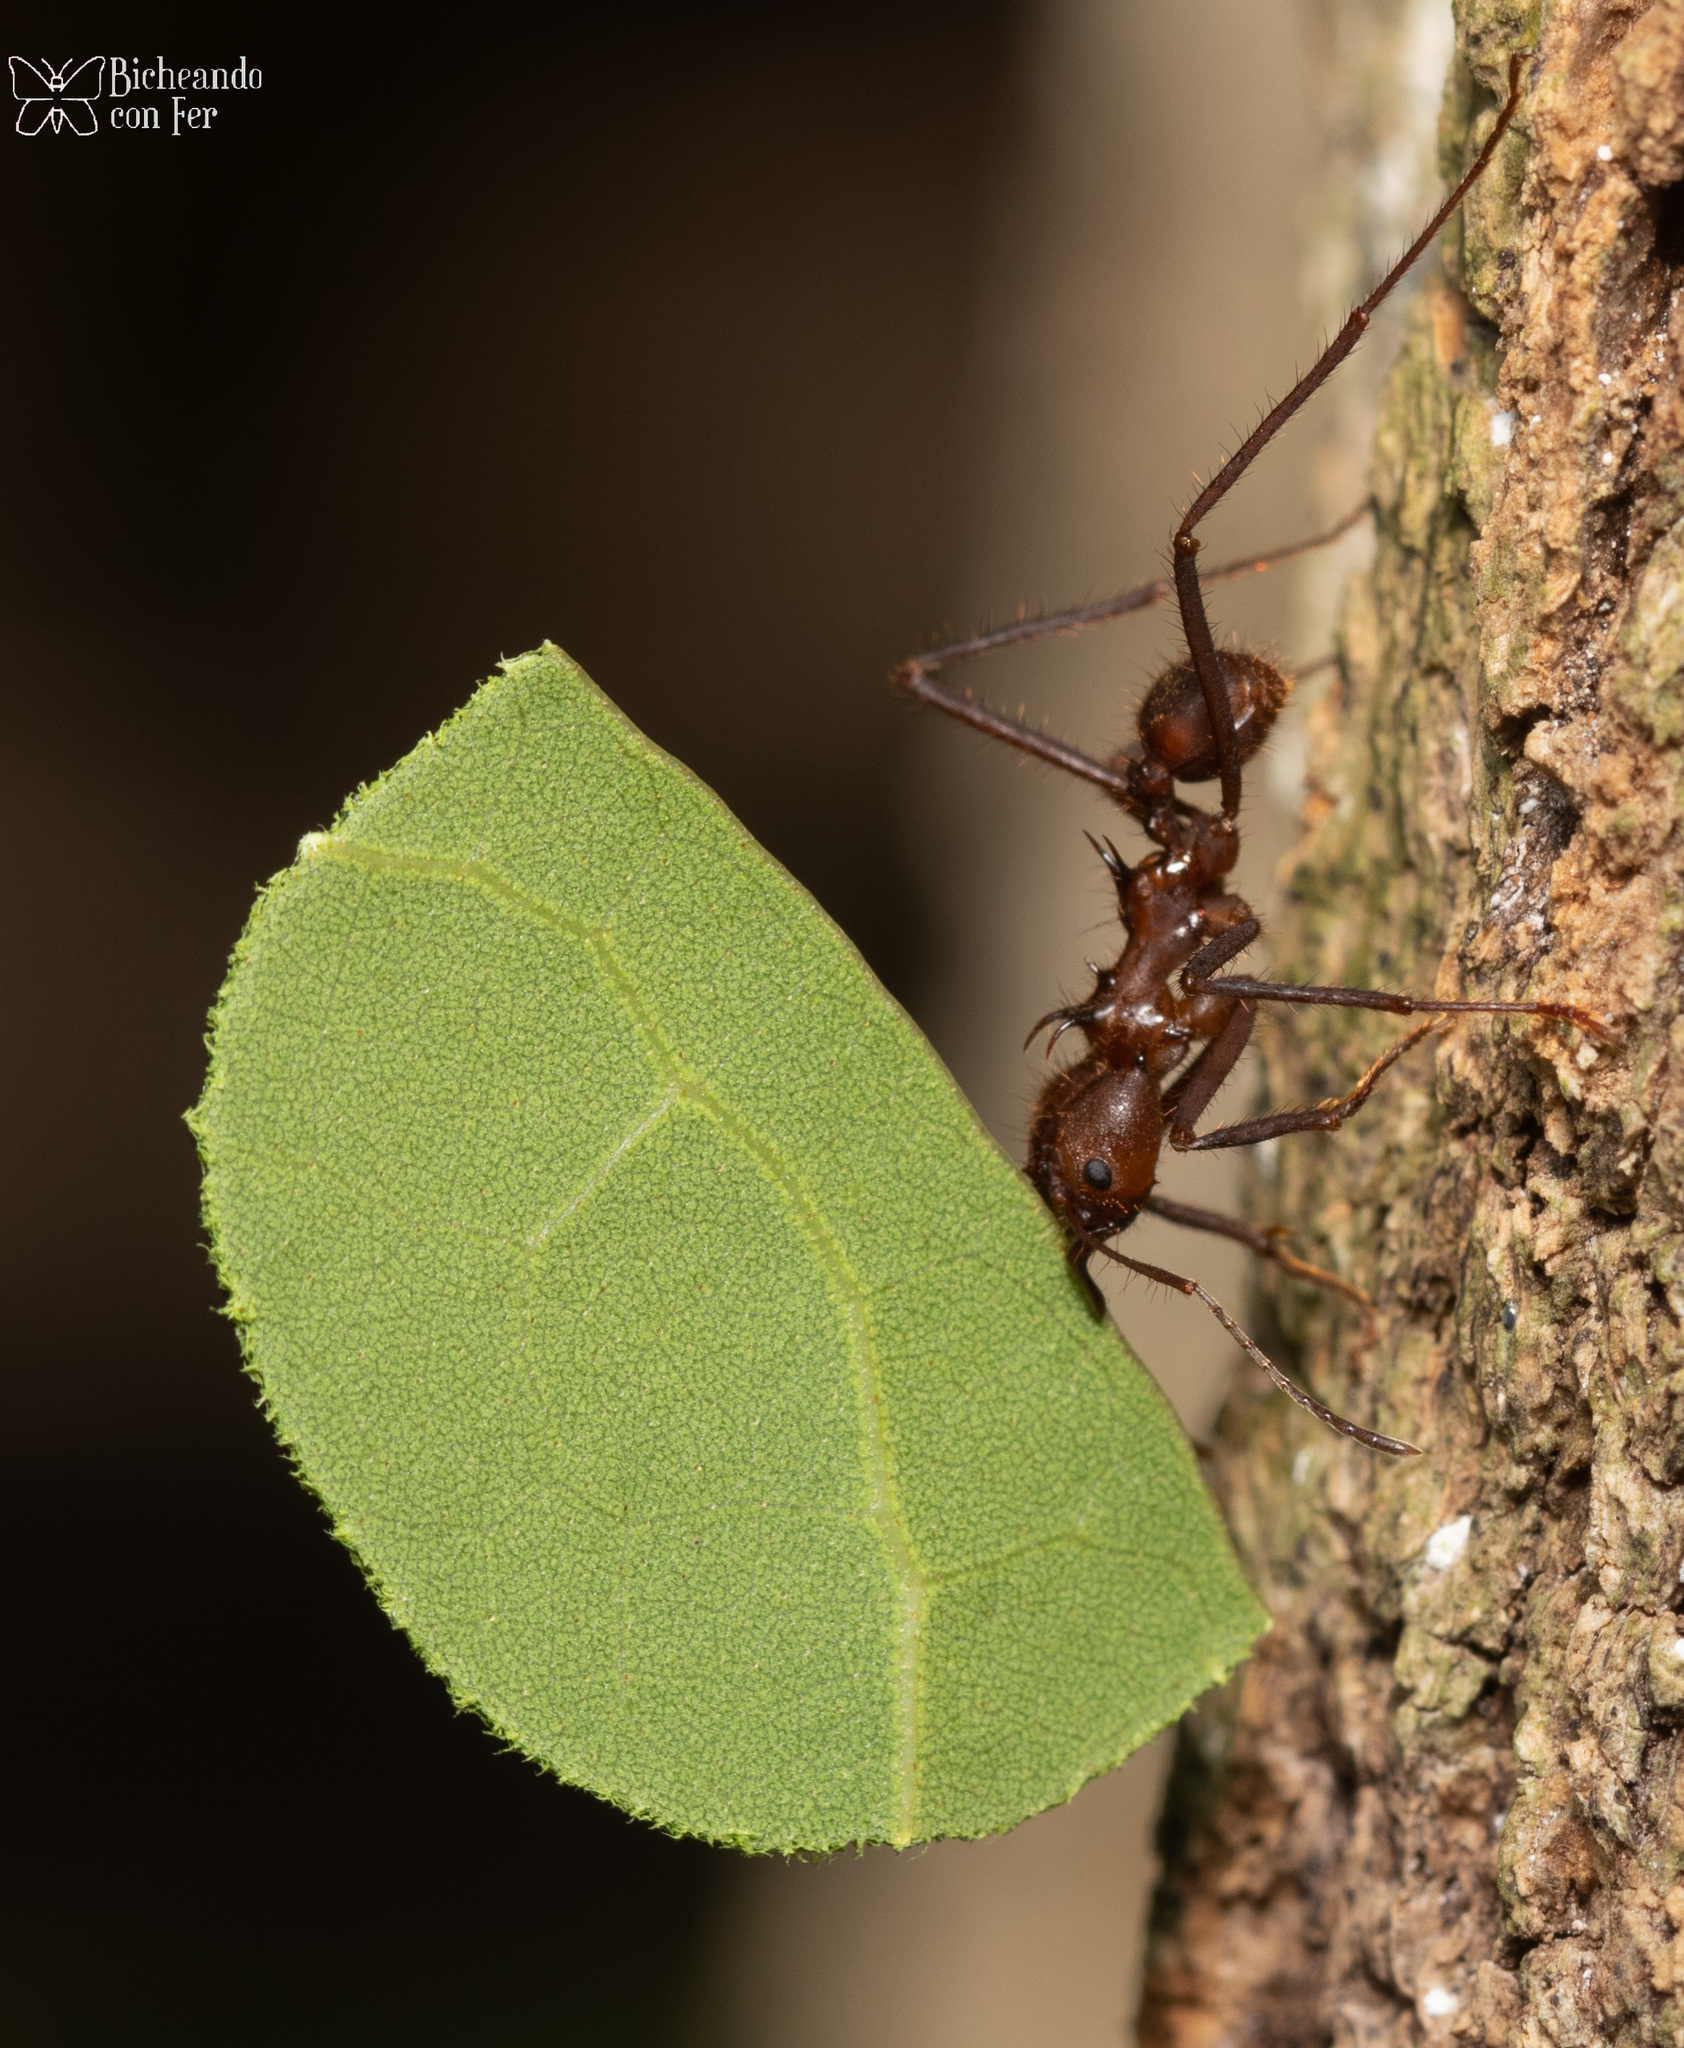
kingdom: Animalia
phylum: Arthropoda
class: Insecta
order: Hymenoptera
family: Formicidae
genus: Atta
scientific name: Atta cephalotes
